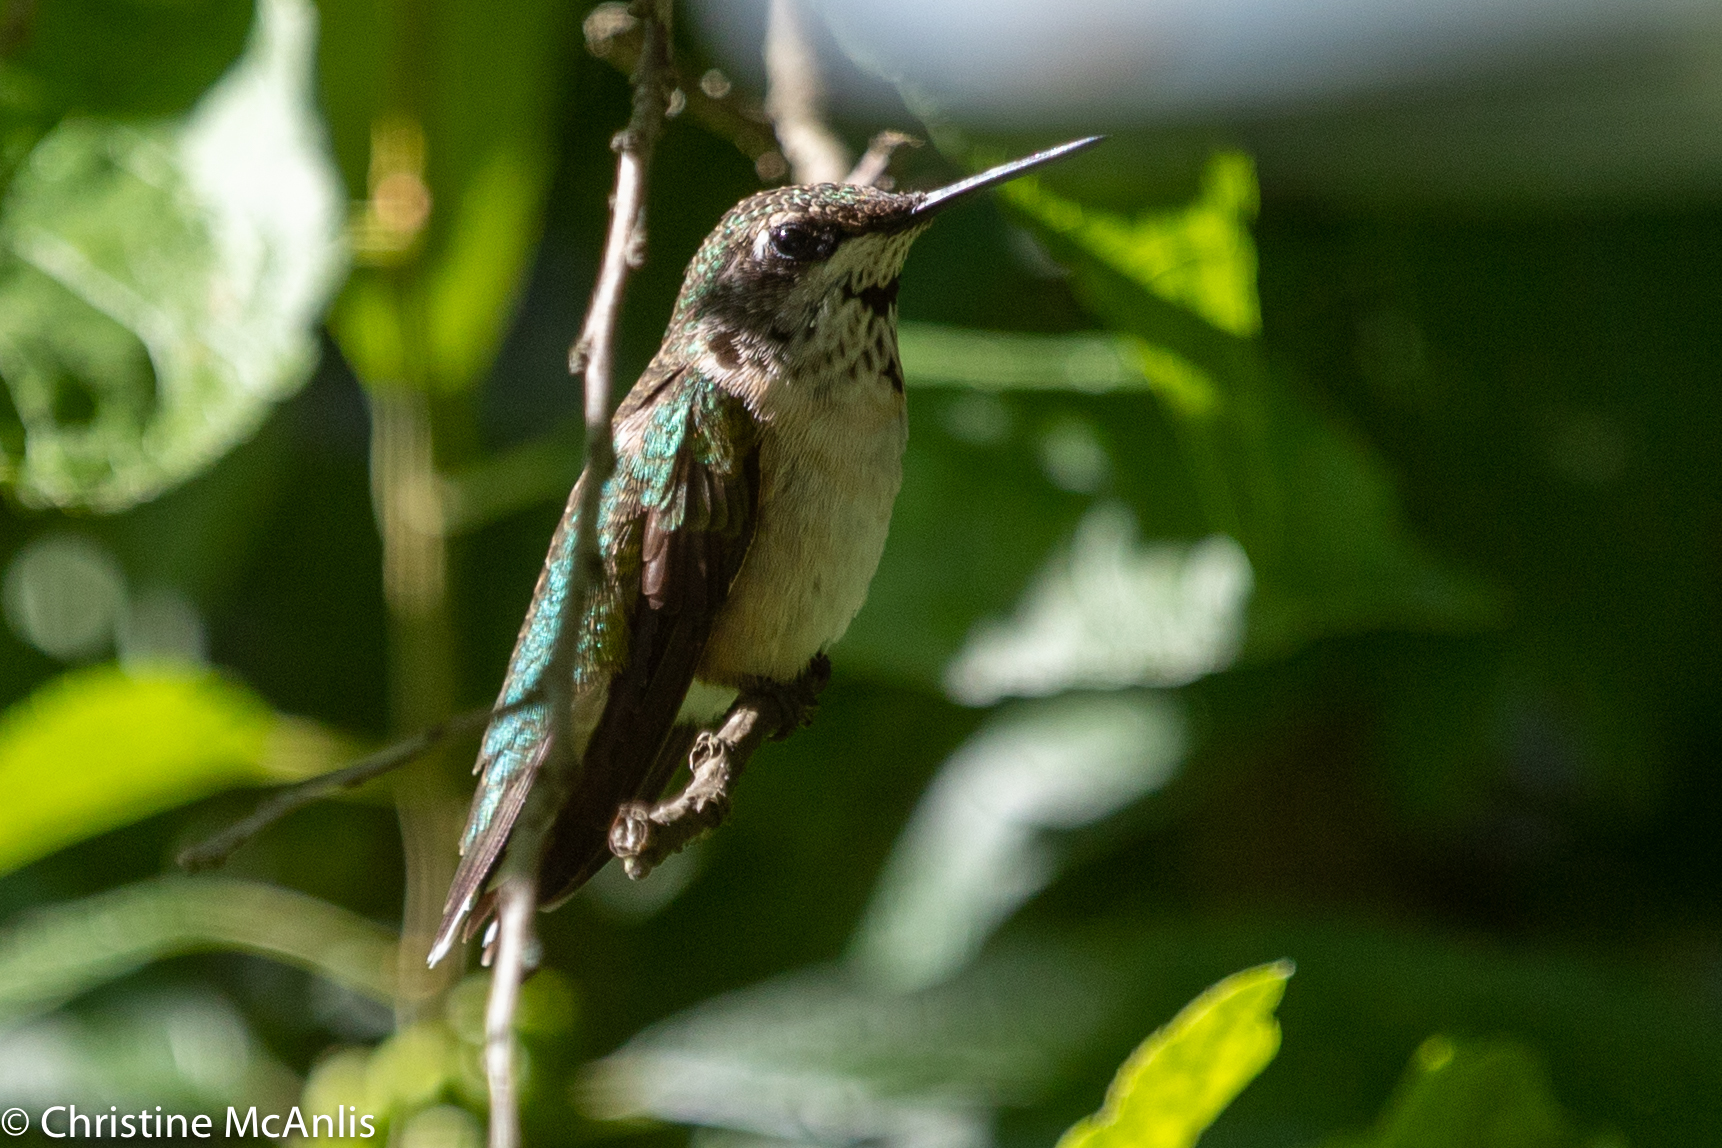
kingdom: Animalia
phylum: Chordata
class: Aves
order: Apodiformes
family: Trochilidae
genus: Archilochus
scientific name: Archilochus colubris
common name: Ruby-throated hummingbird
